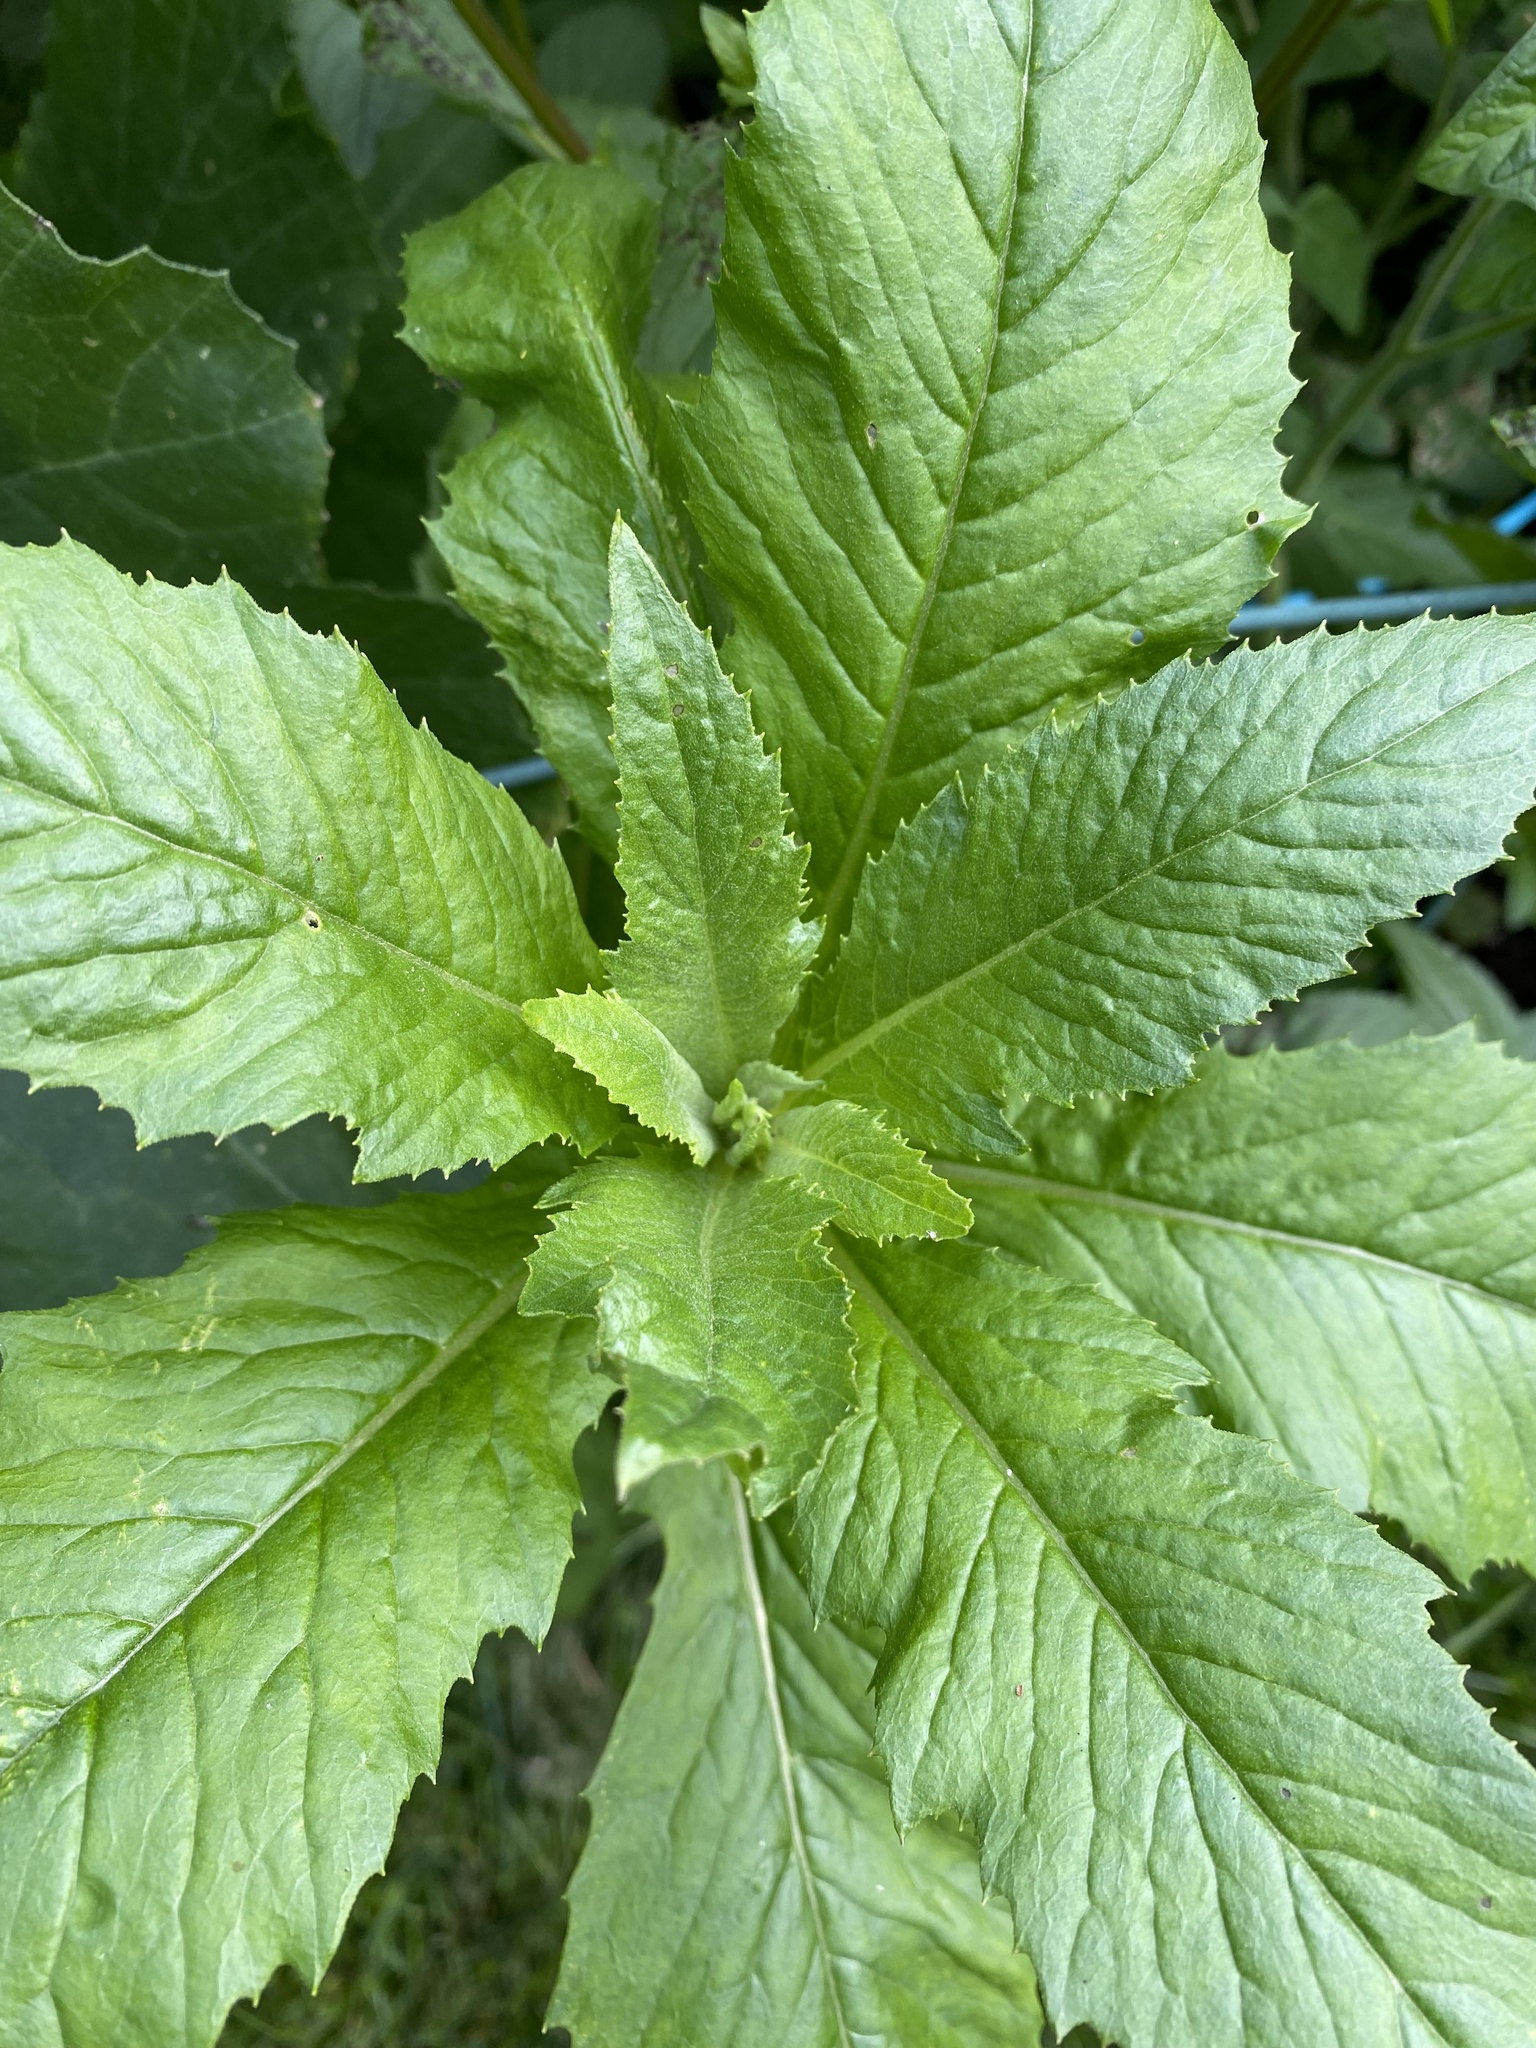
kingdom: Plantae
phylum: Tracheophyta
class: Magnoliopsida
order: Asterales
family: Asteraceae
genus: Erechtites
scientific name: Erechtites hieraciifolius
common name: American burnweed
